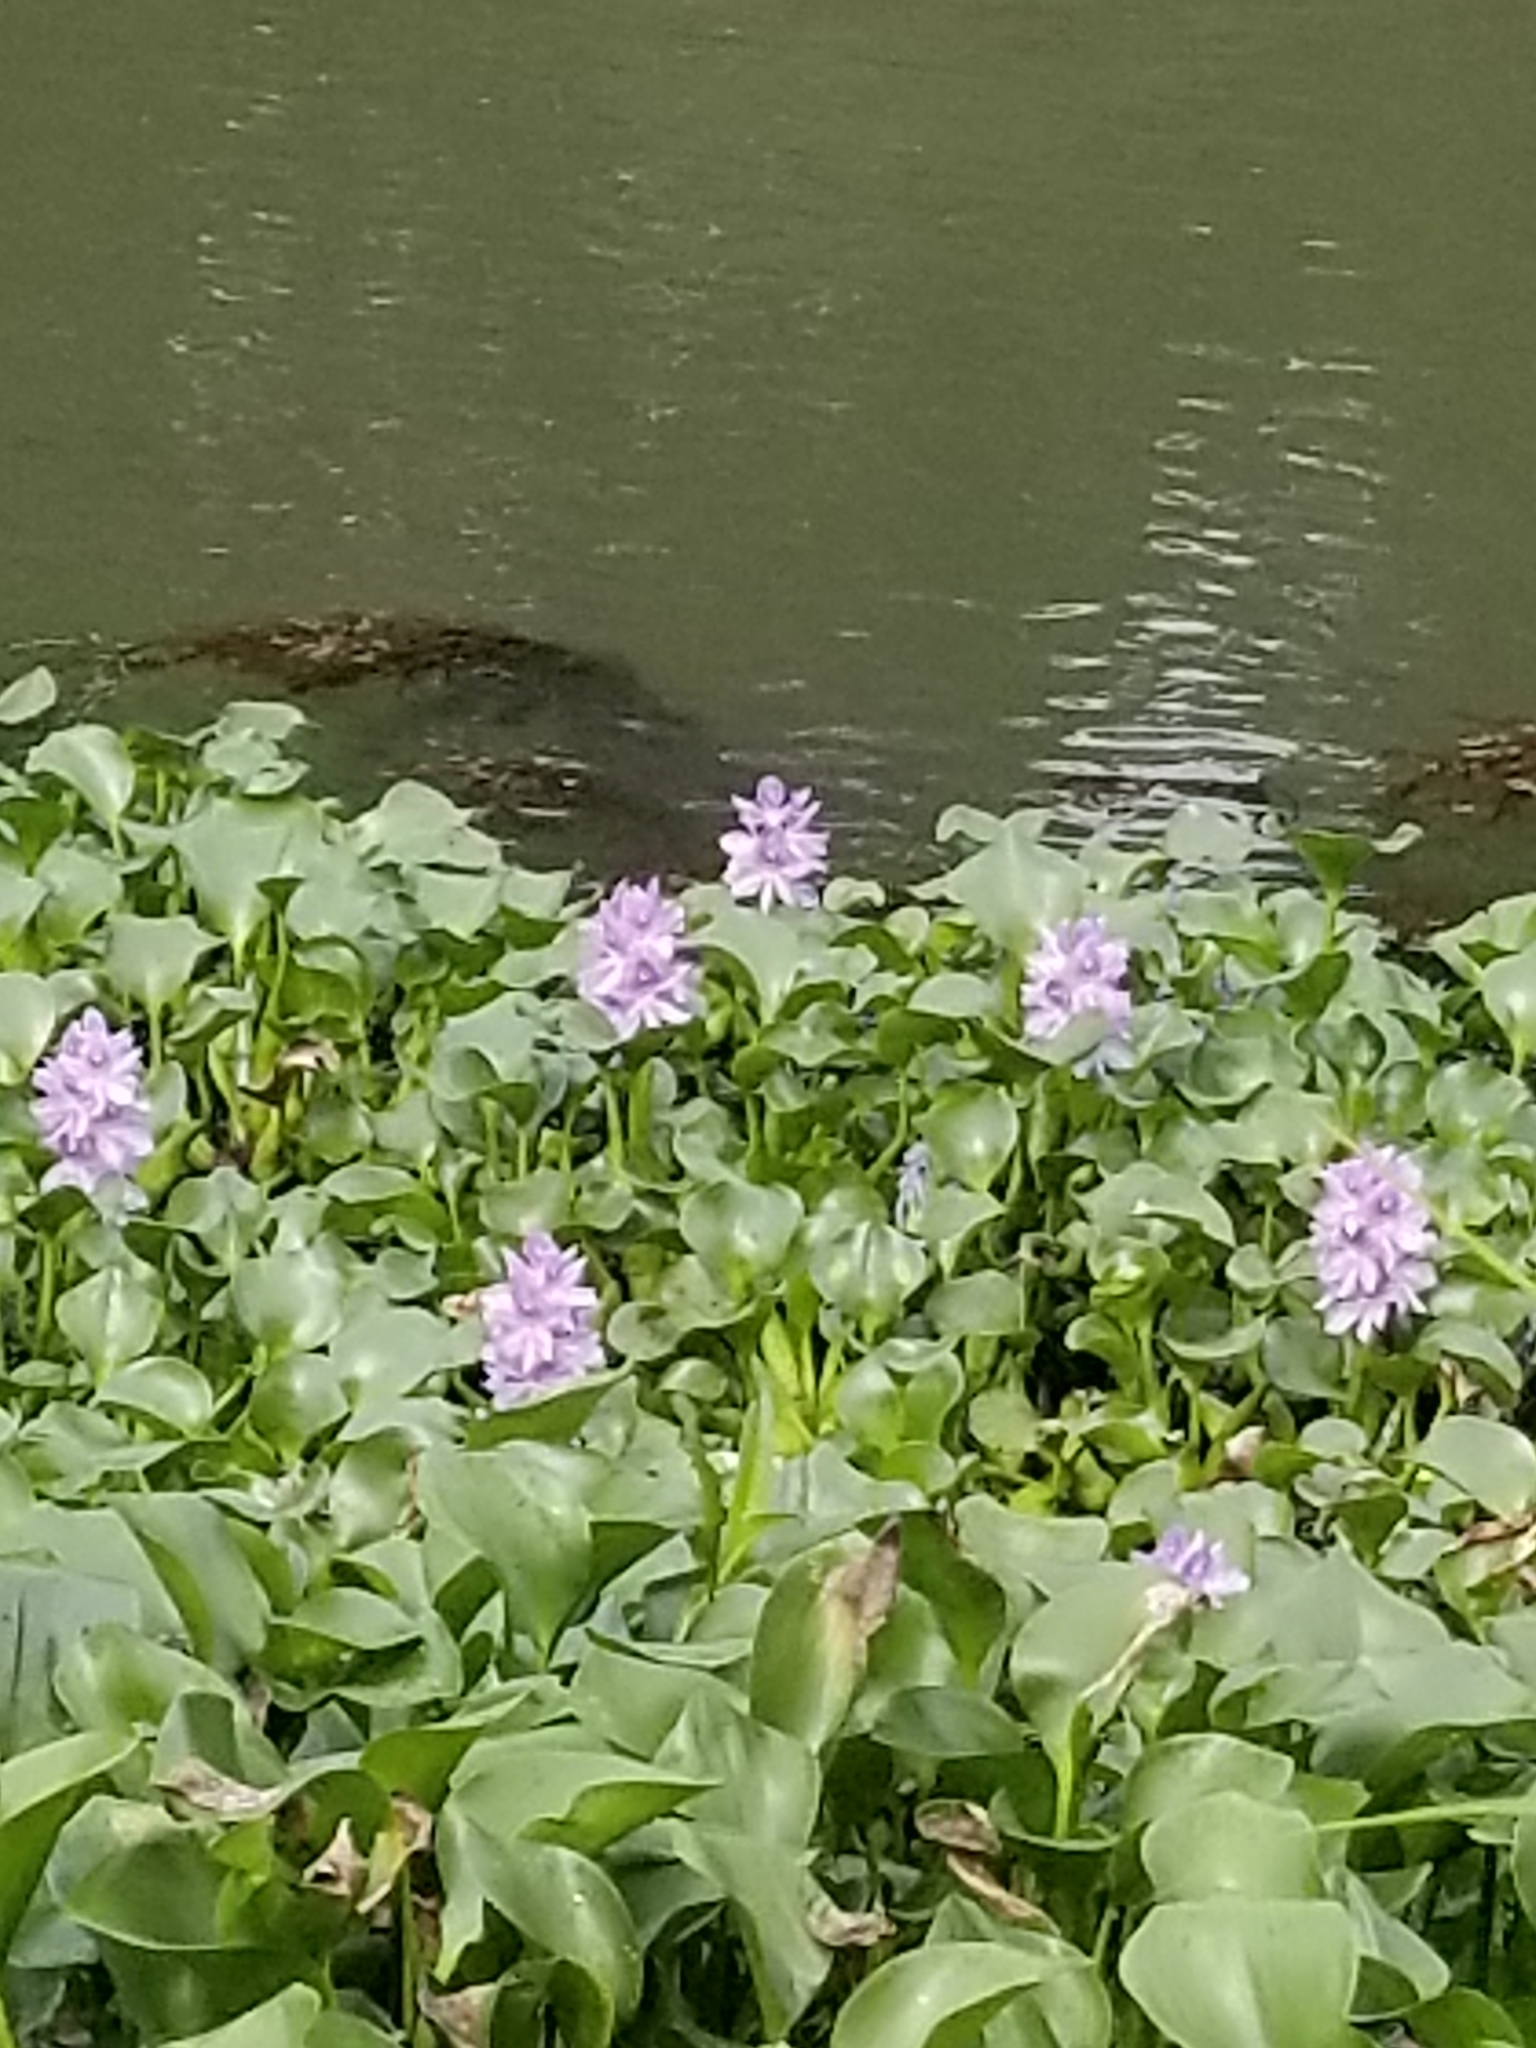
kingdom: Plantae
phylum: Tracheophyta
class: Liliopsida
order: Commelinales
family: Pontederiaceae
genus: Pontederia
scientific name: Pontederia crassipes
